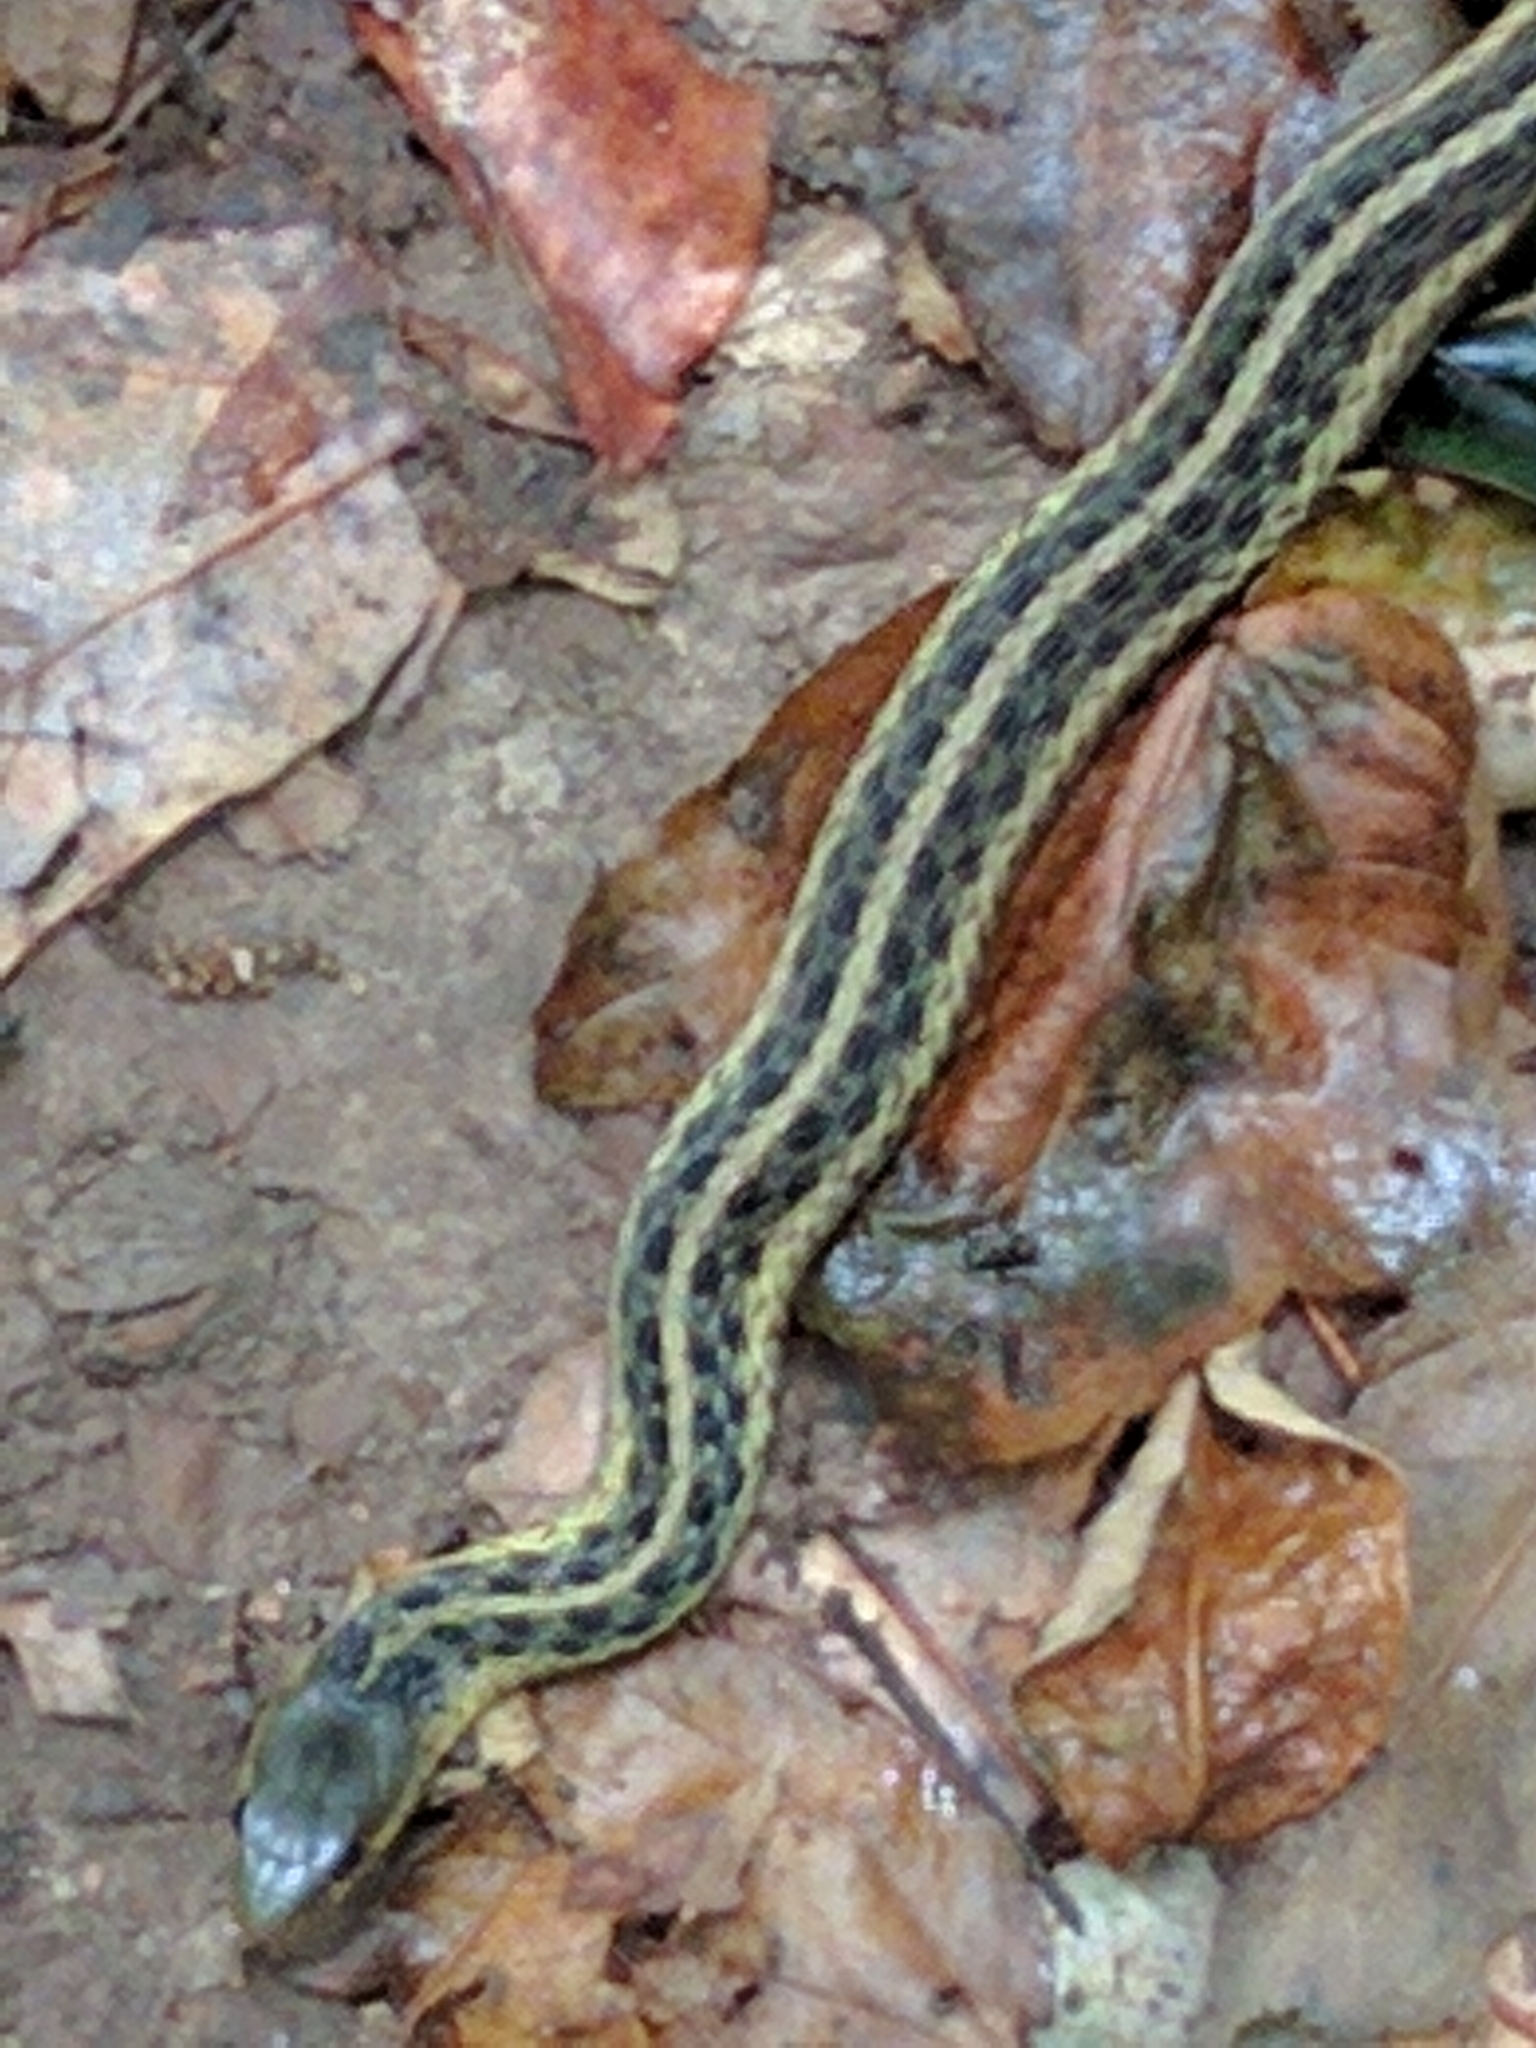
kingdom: Animalia
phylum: Chordata
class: Squamata
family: Colubridae
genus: Thamnophis
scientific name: Thamnophis sirtalis
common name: Common garter snake
